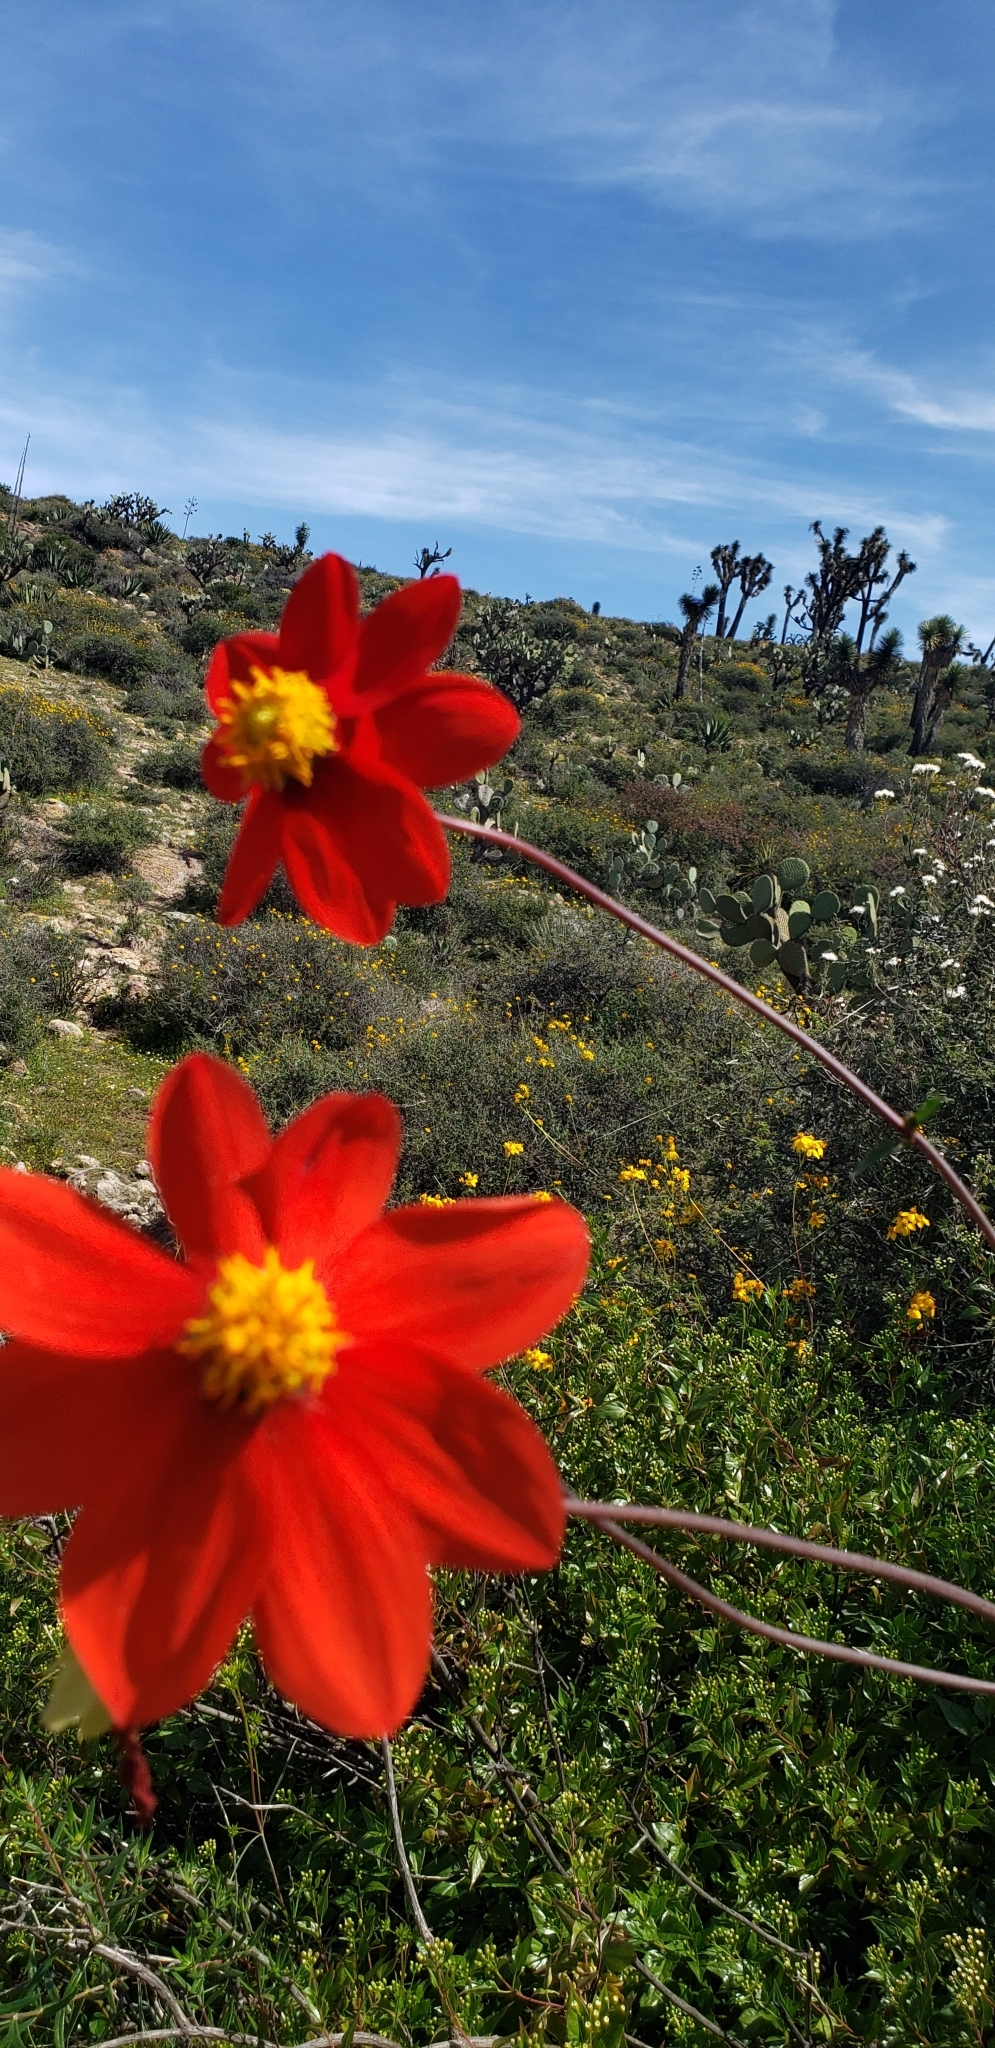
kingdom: Plantae
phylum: Tracheophyta
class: Magnoliopsida
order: Asterales
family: Asteraceae
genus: Dahlia
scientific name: Dahlia coccinea
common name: Red dahlia
